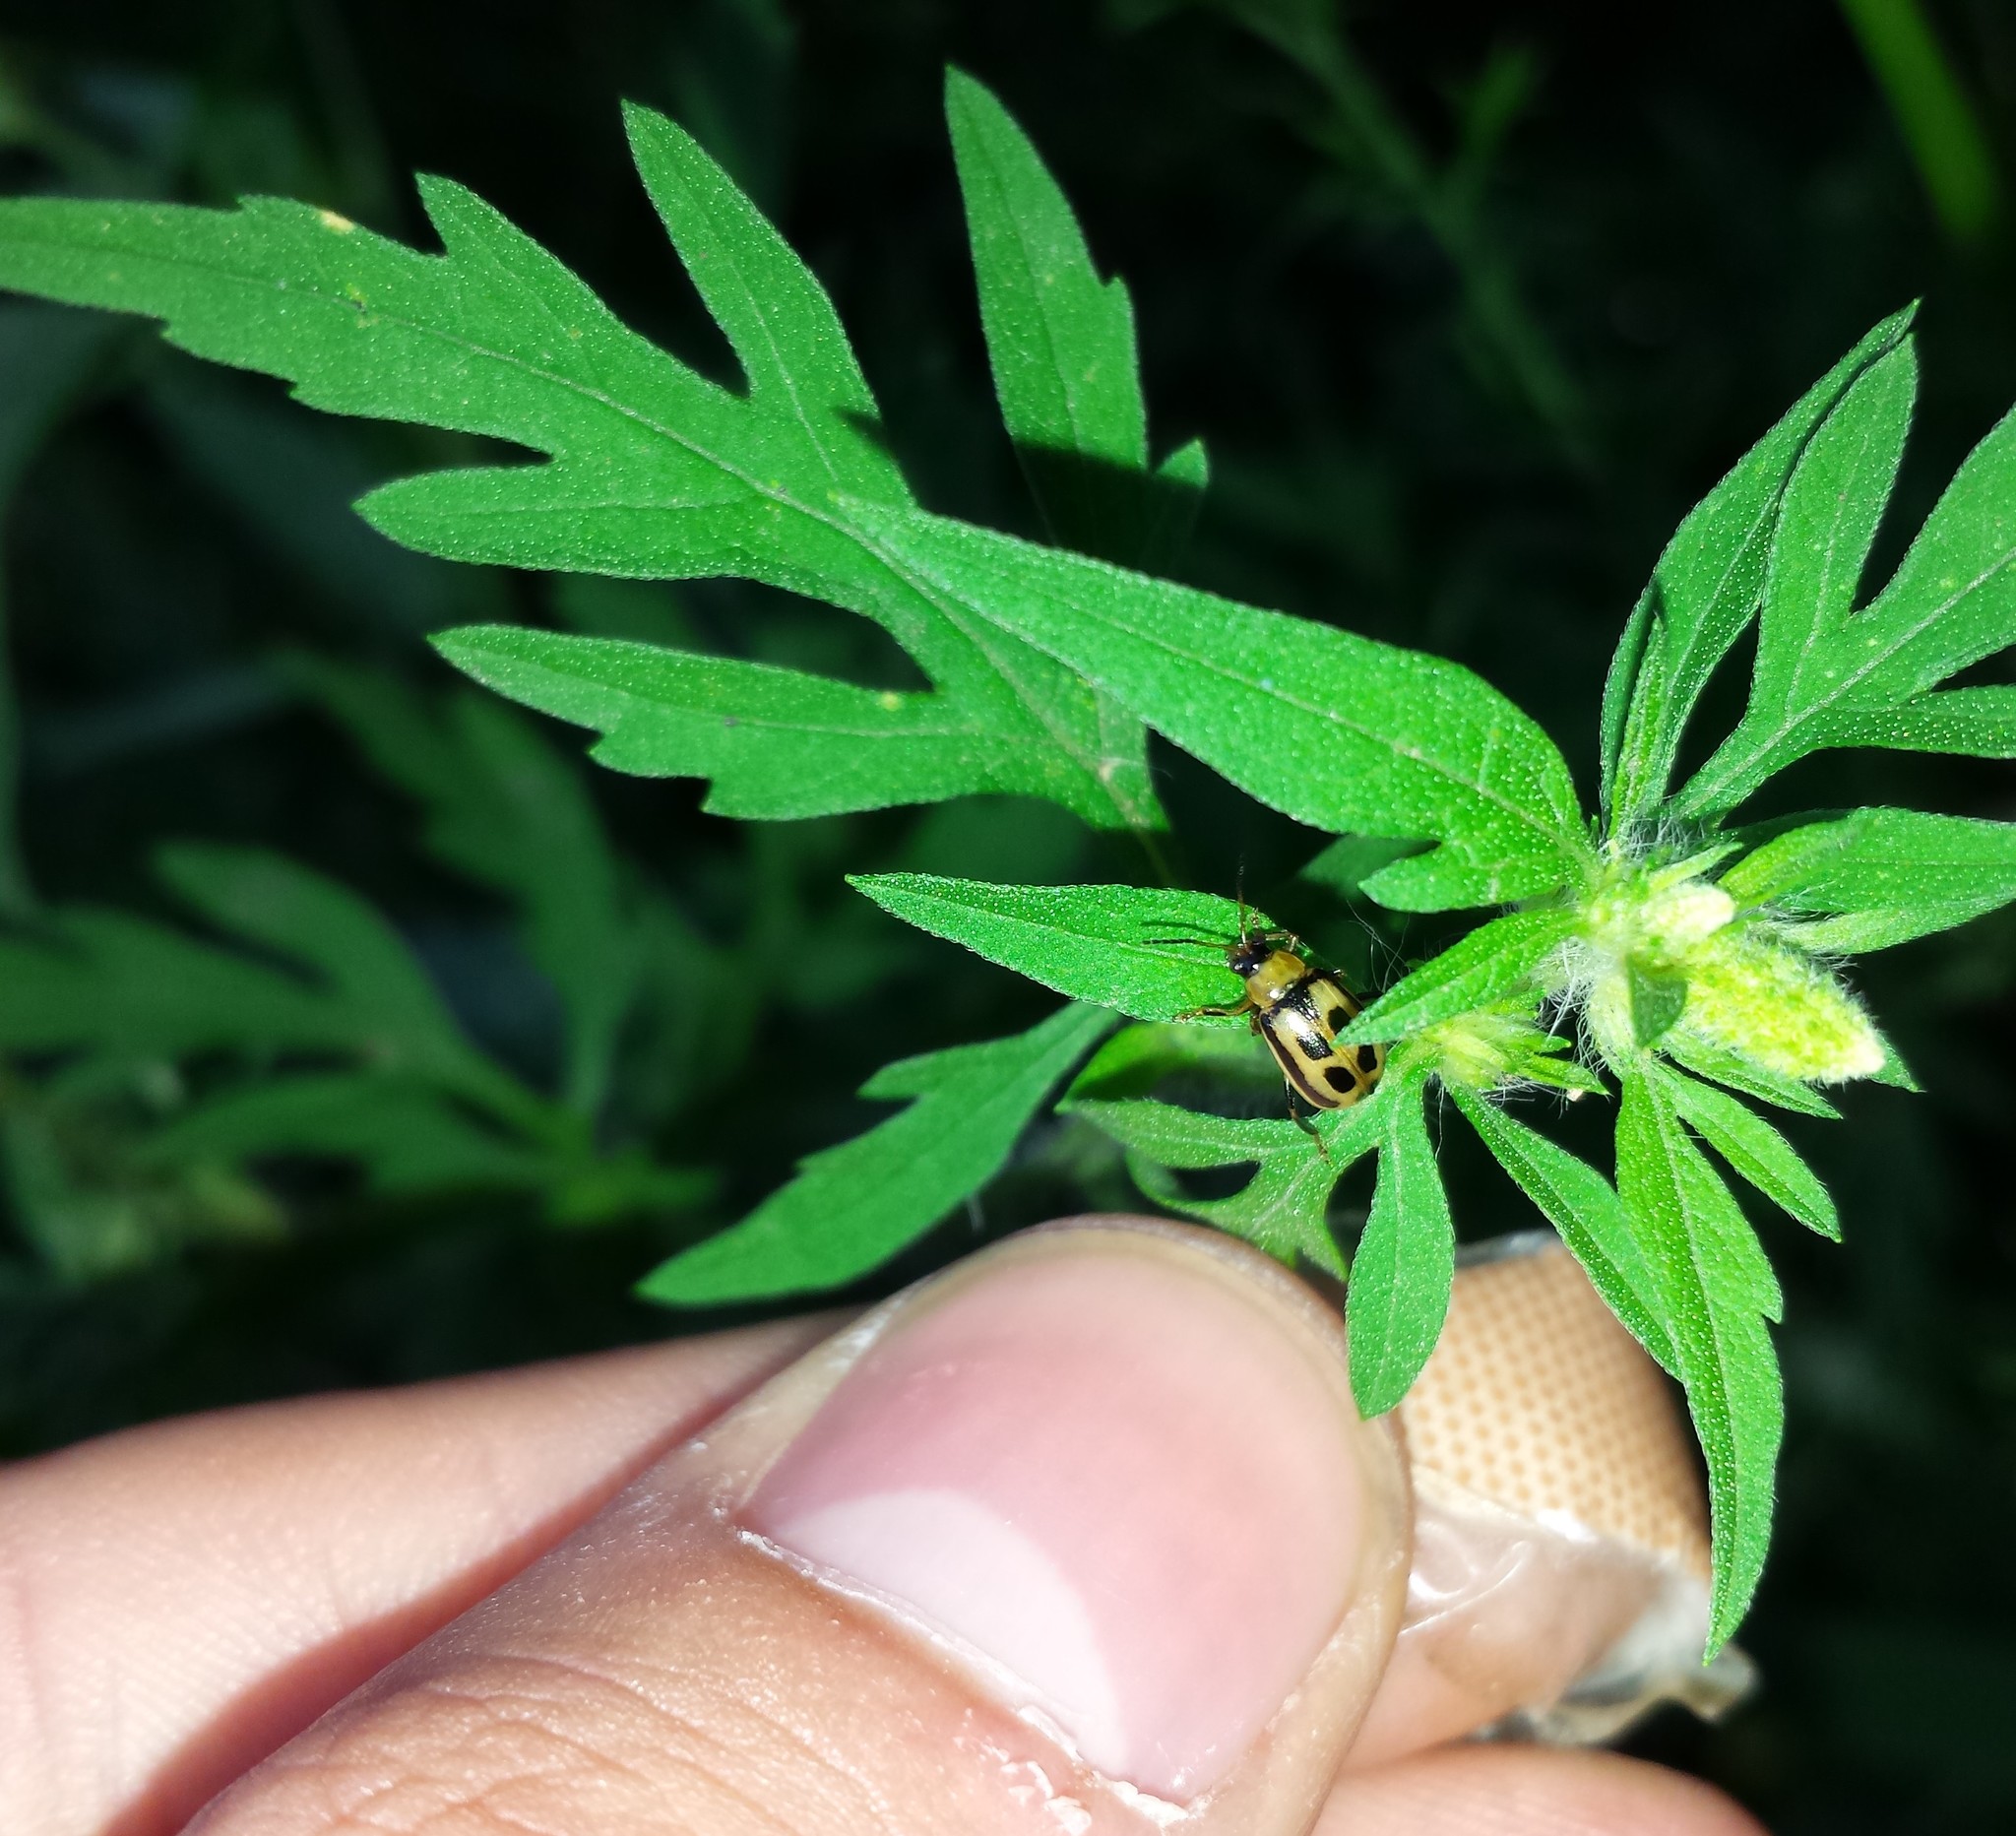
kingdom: Plantae
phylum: Tracheophyta
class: Magnoliopsida
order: Asterales
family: Asteraceae
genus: Ambrosia
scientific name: Ambrosia artemisiifolia
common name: Annual ragweed
